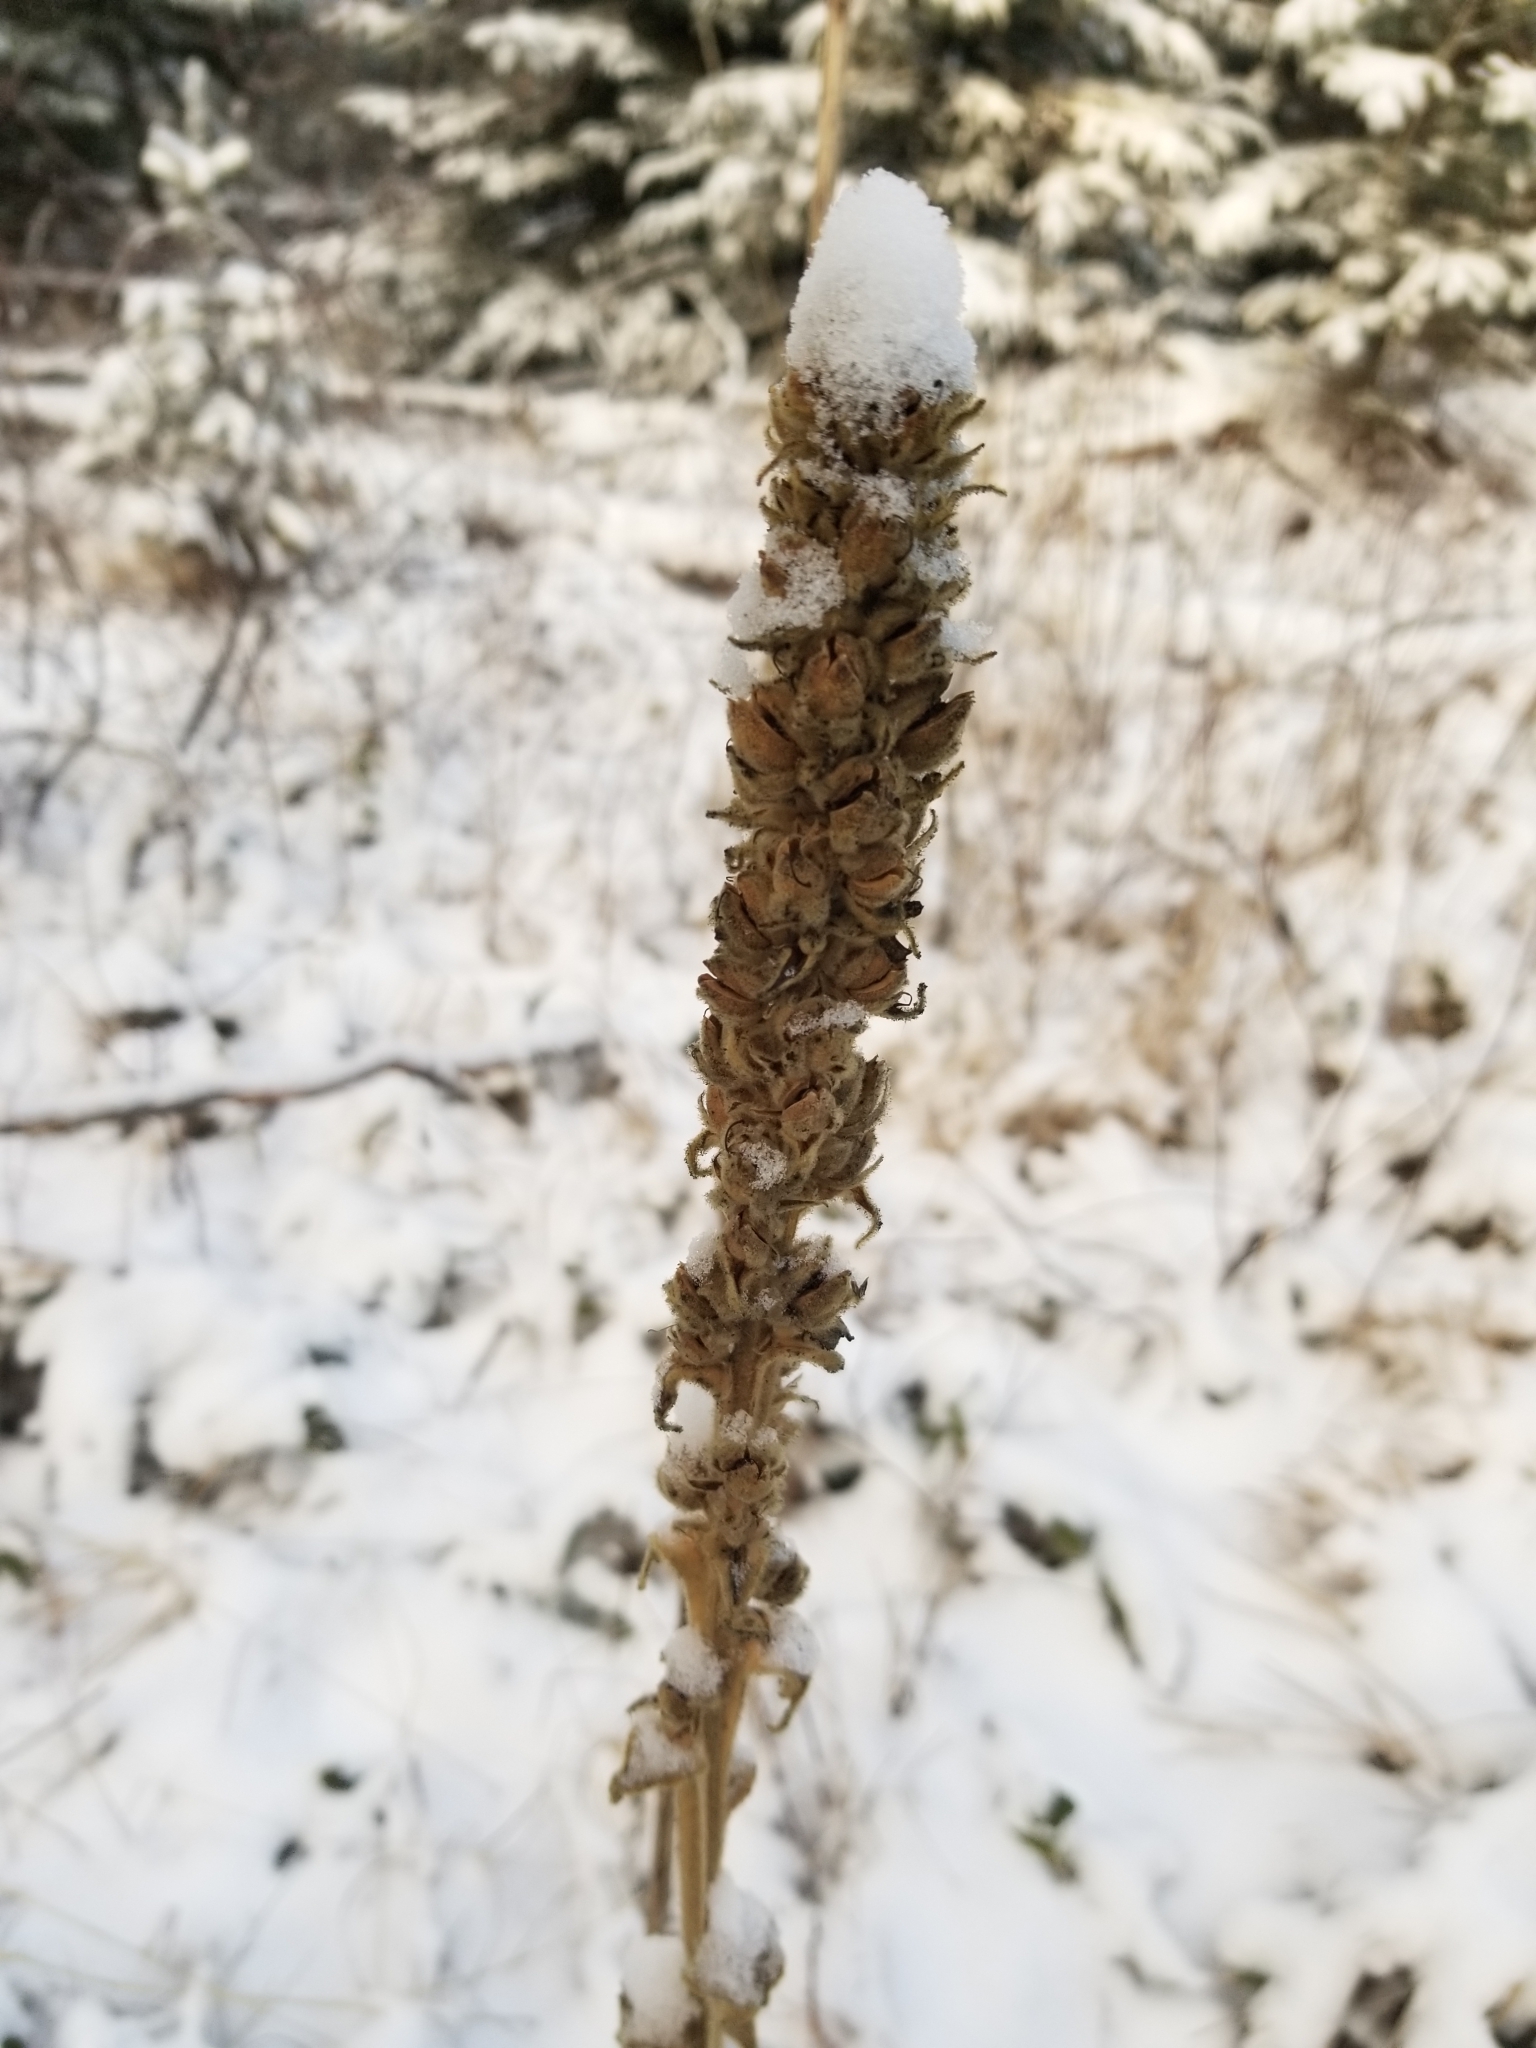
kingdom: Plantae
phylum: Tracheophyta
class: Magnoliopsida
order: Lamiales
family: Scrophulariaceae
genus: Verbascum
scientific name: Verbascum thapsus
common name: Common mullein
